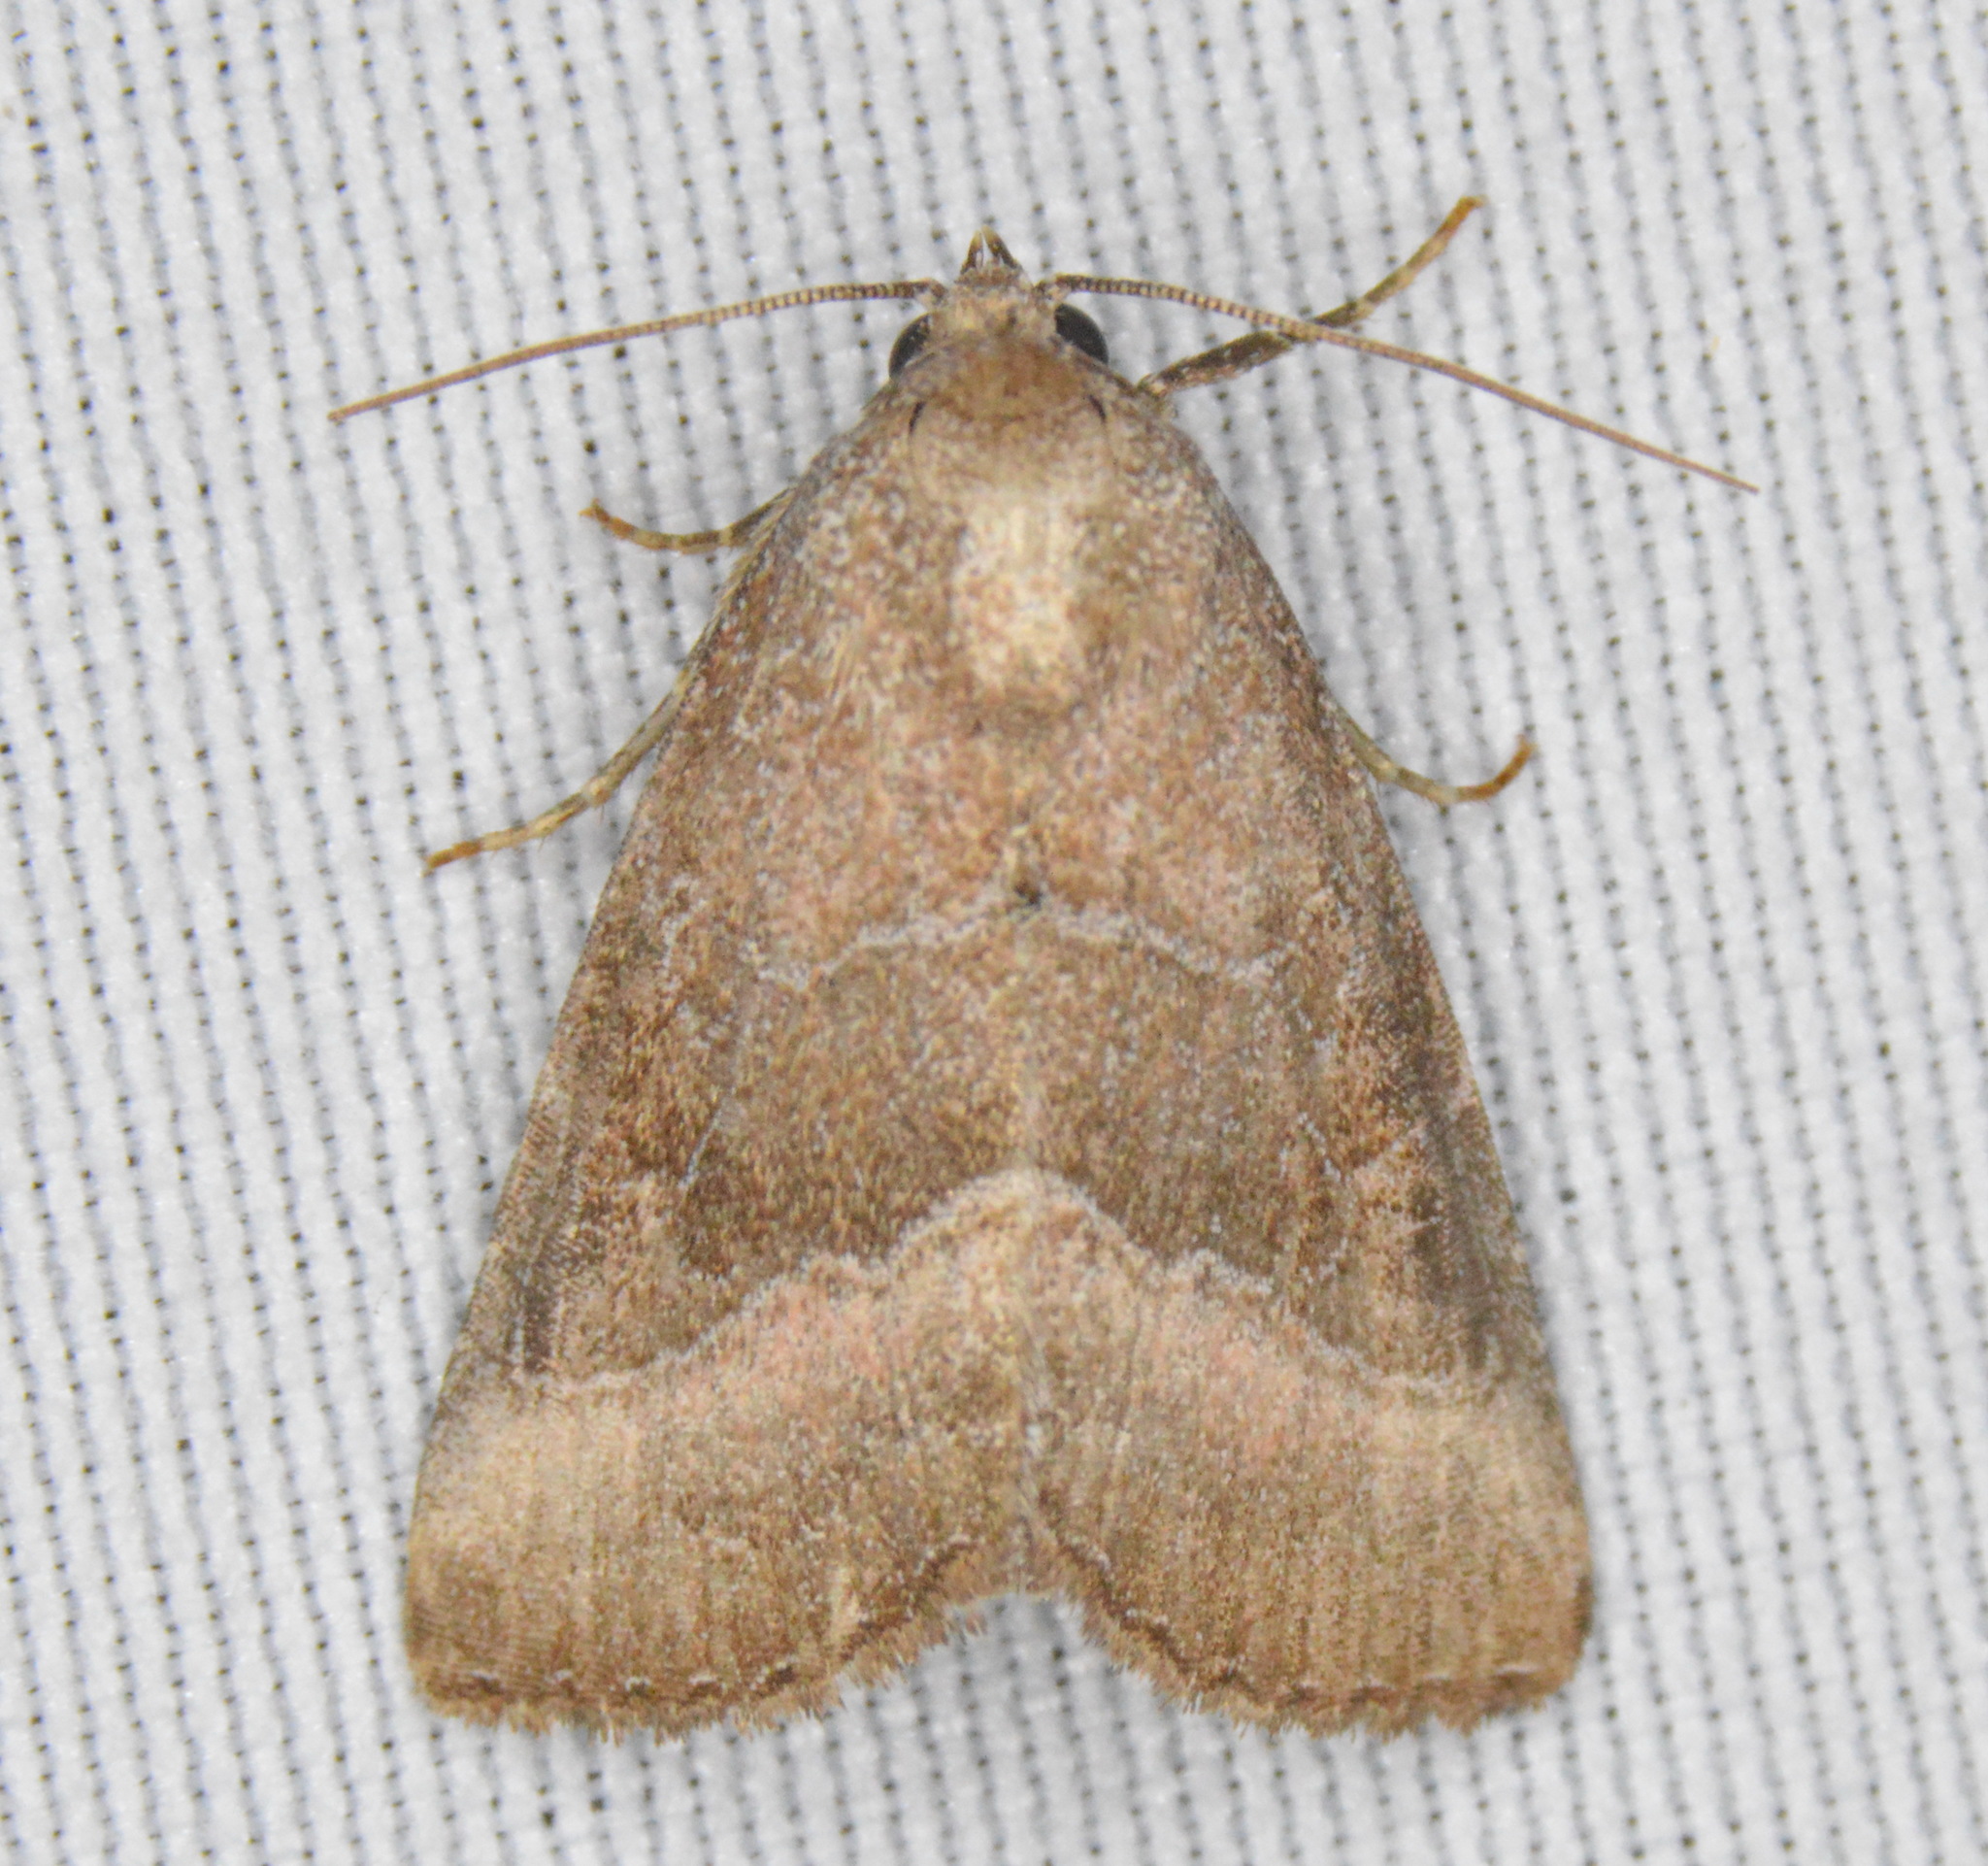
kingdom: Animalia
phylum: Arthropoda
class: Insecta
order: Lepidoptera
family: Noctuidae
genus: Ogdoconta
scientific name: Ogdoconta cinereola
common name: Common pinkband
